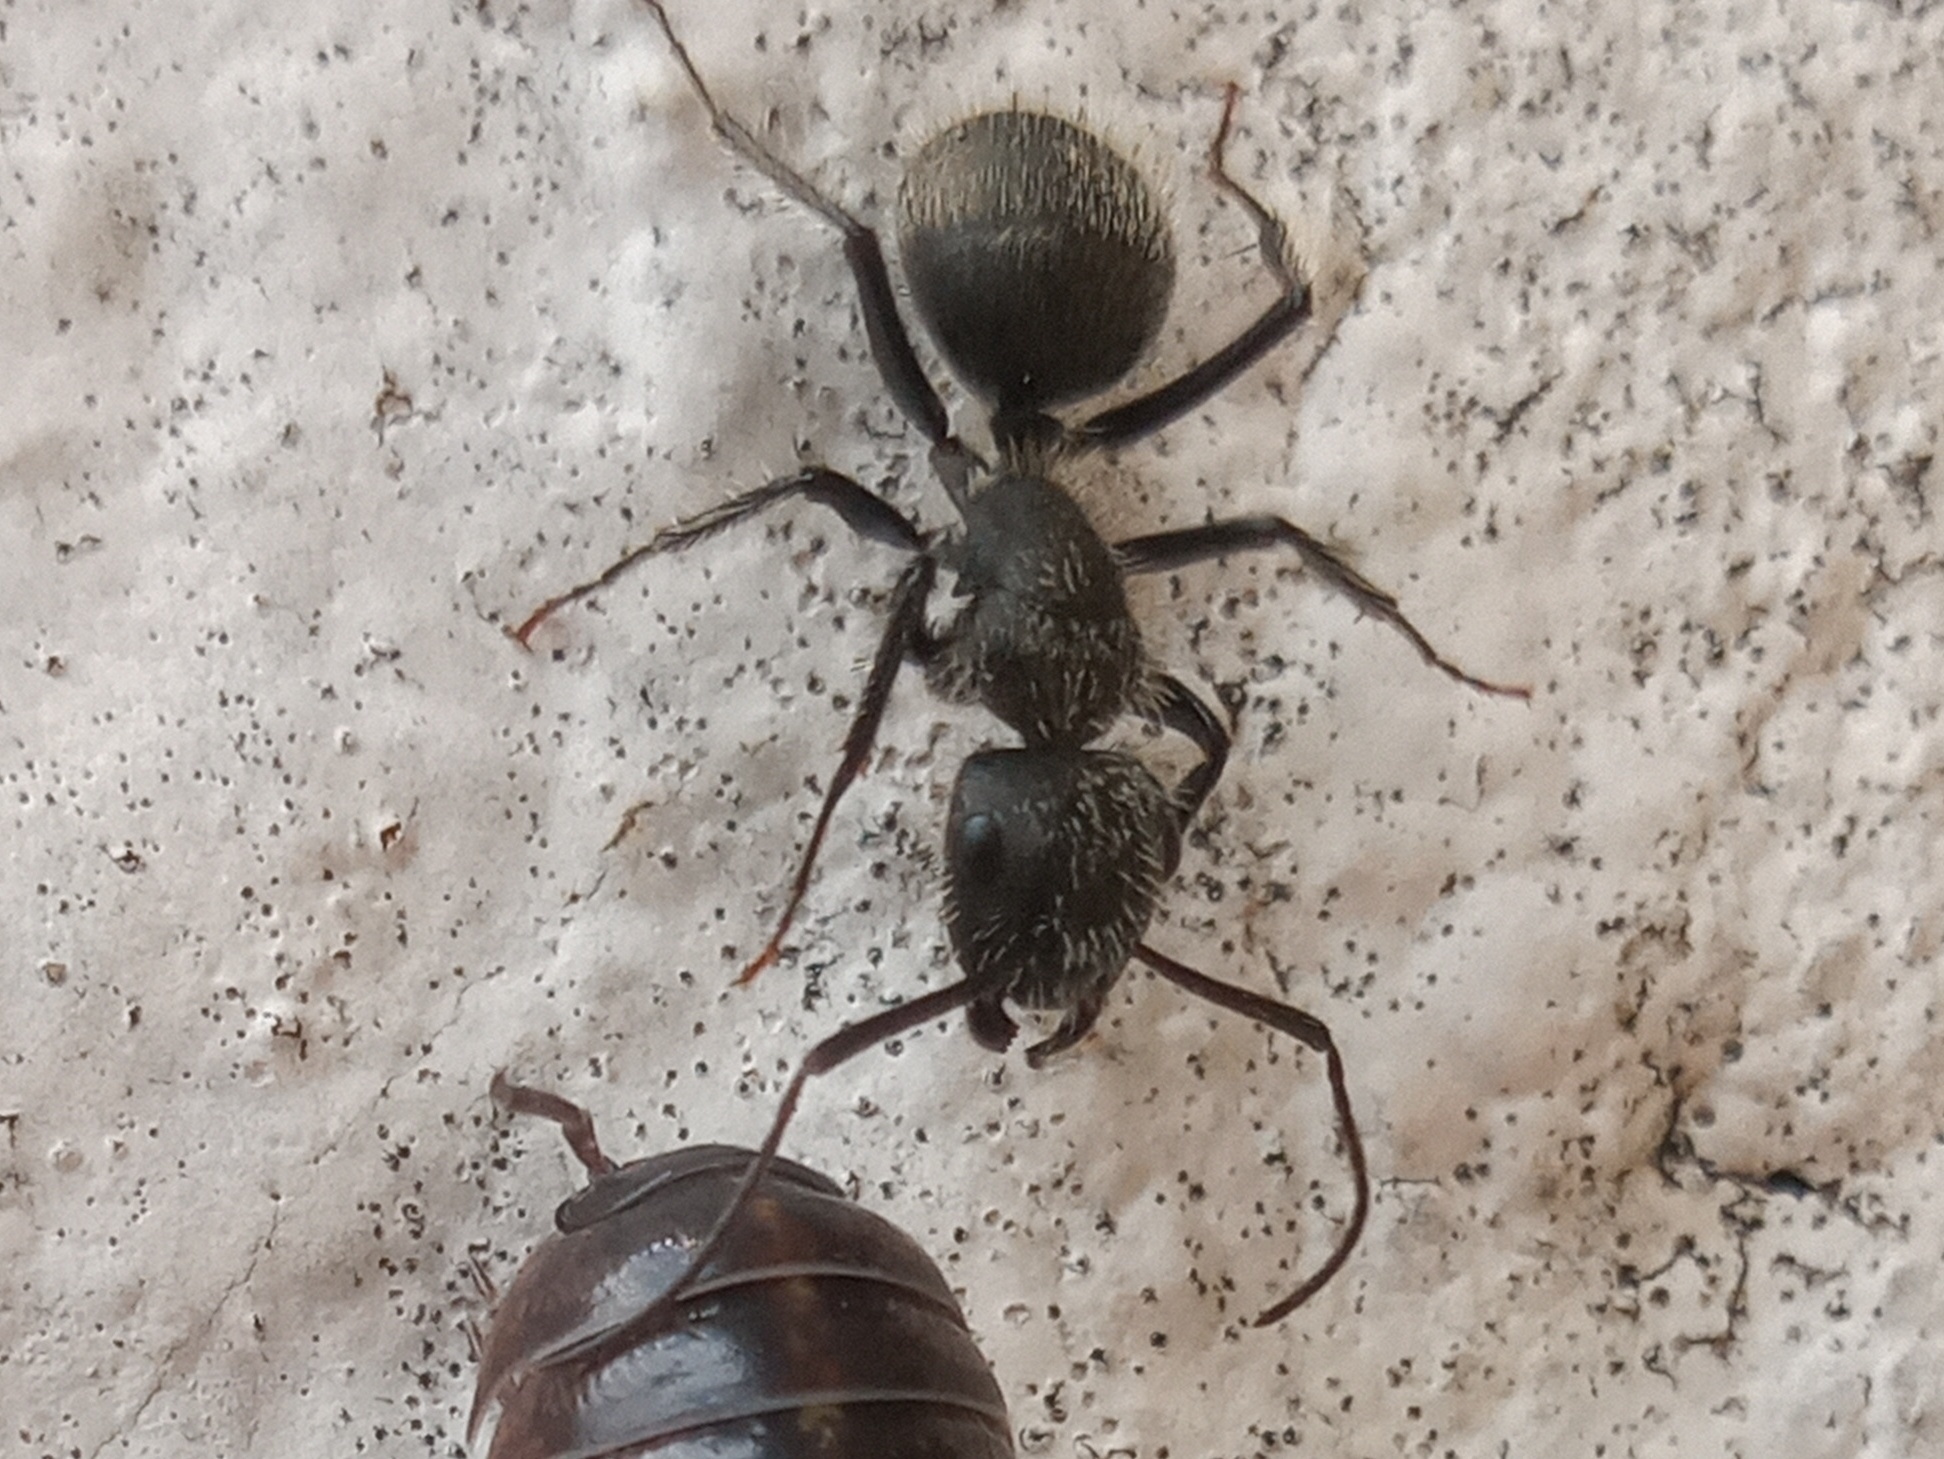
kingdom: Animalia
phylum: Arthropoda
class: Insecta
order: Hymenoptera
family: Formicidae
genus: Camponotus
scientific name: Camponotus pellarius
